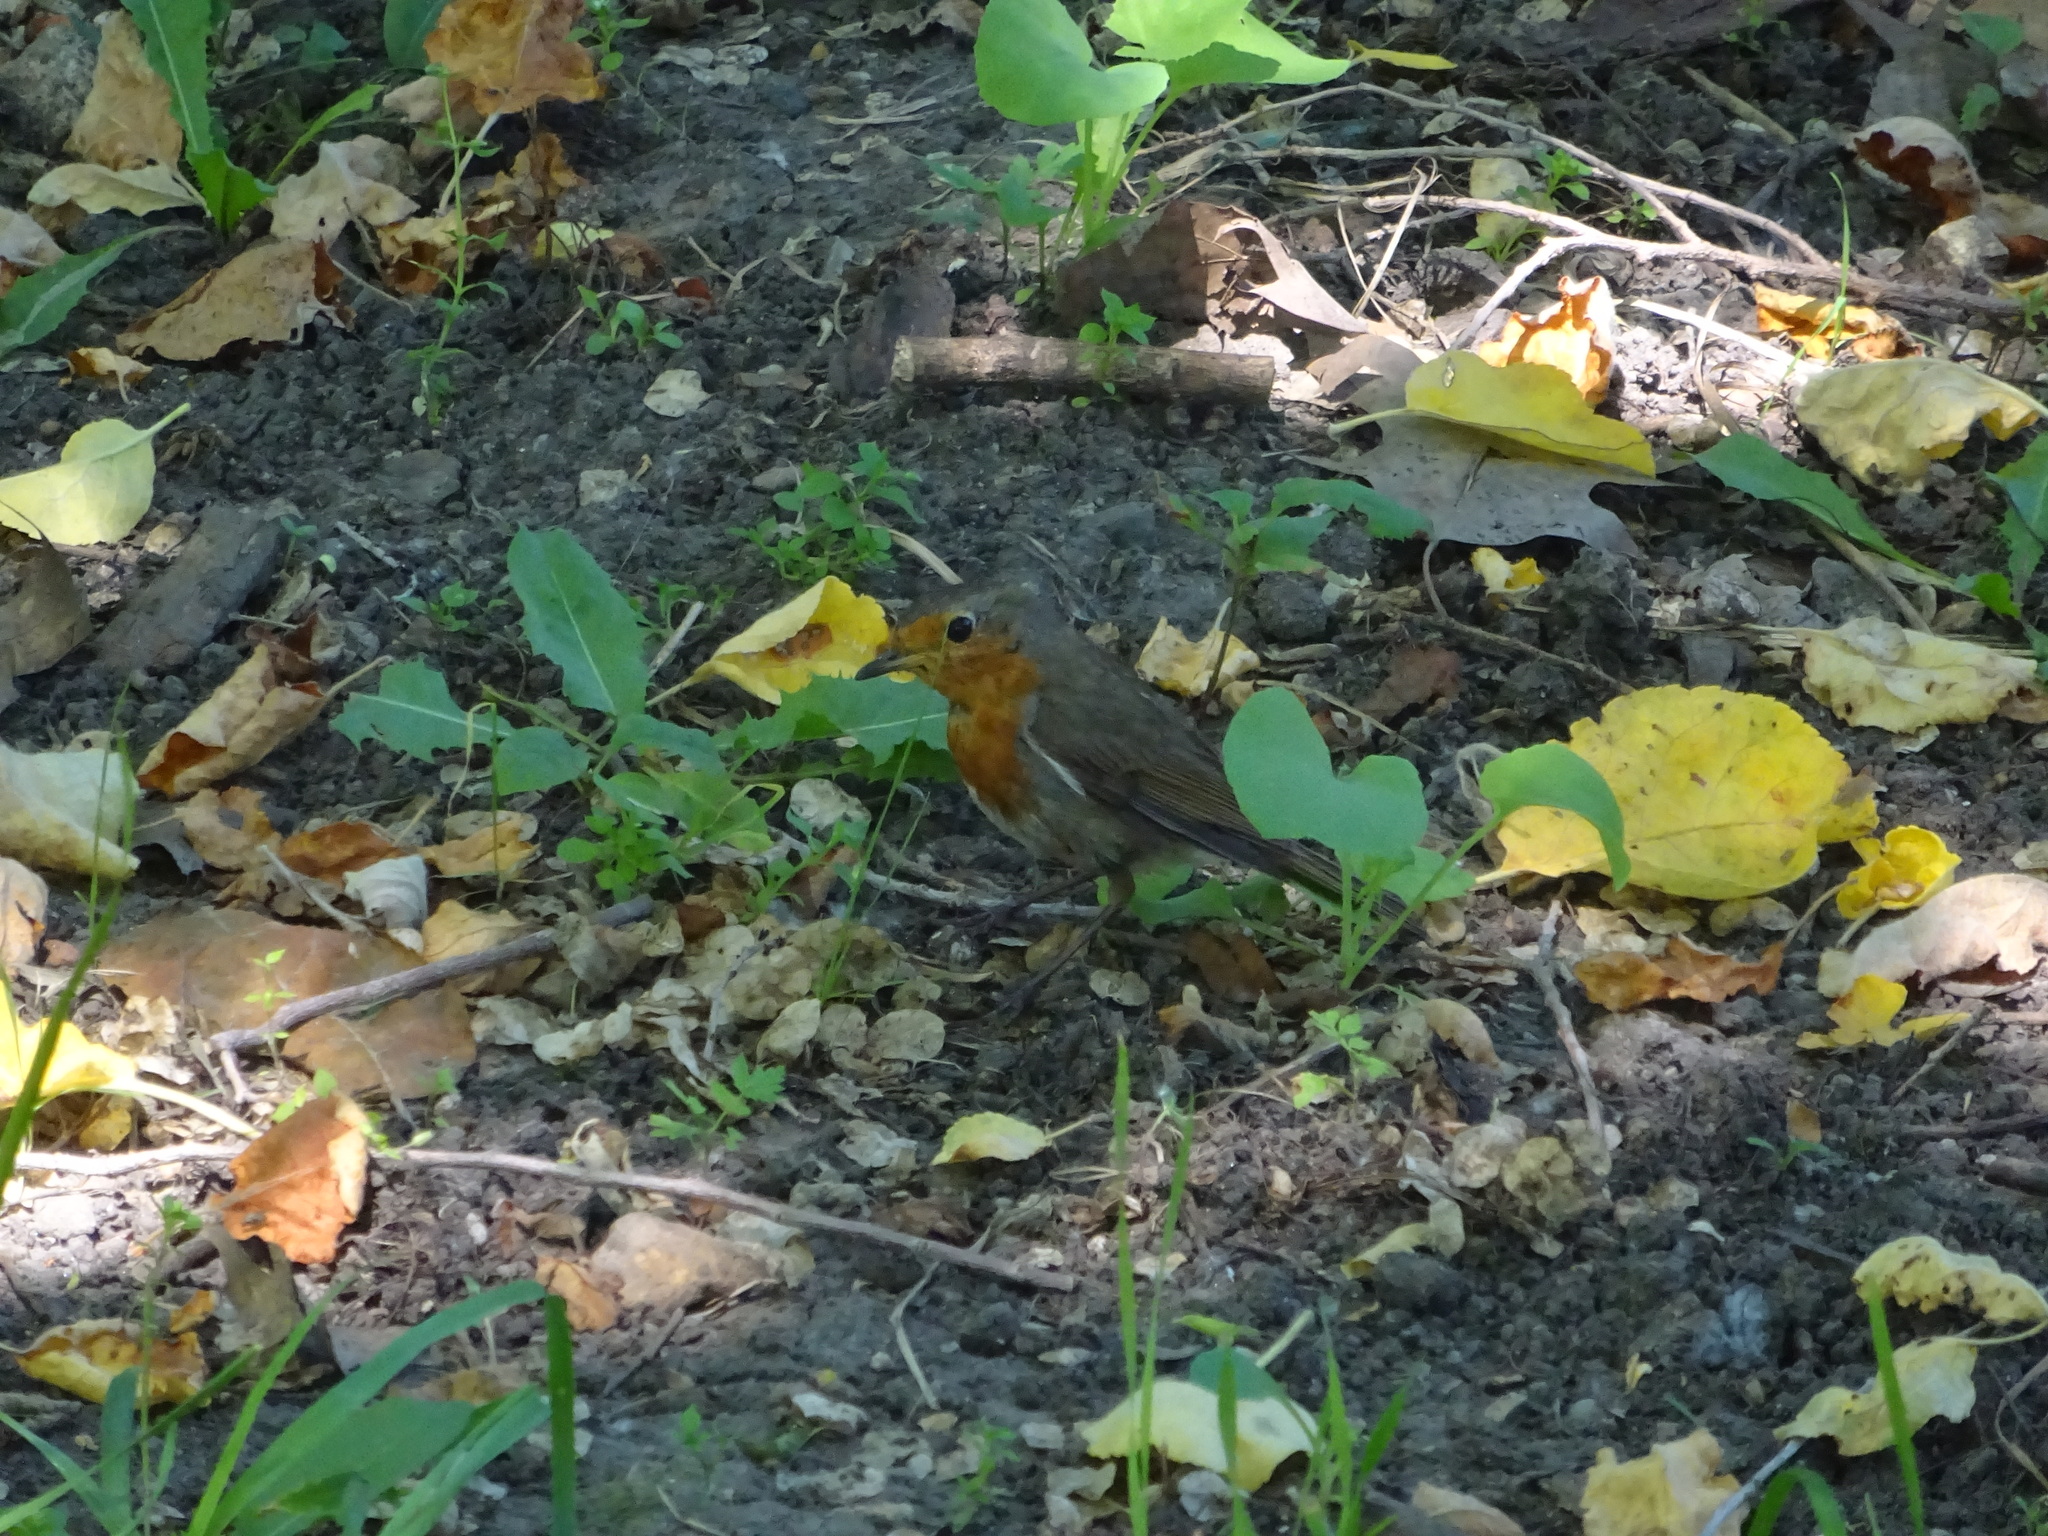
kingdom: Animalia
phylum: Chordata
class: Aves
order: Passeriformes
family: Muscicapidae
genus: Erithacus
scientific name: Erithacus rubecula
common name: European robin
